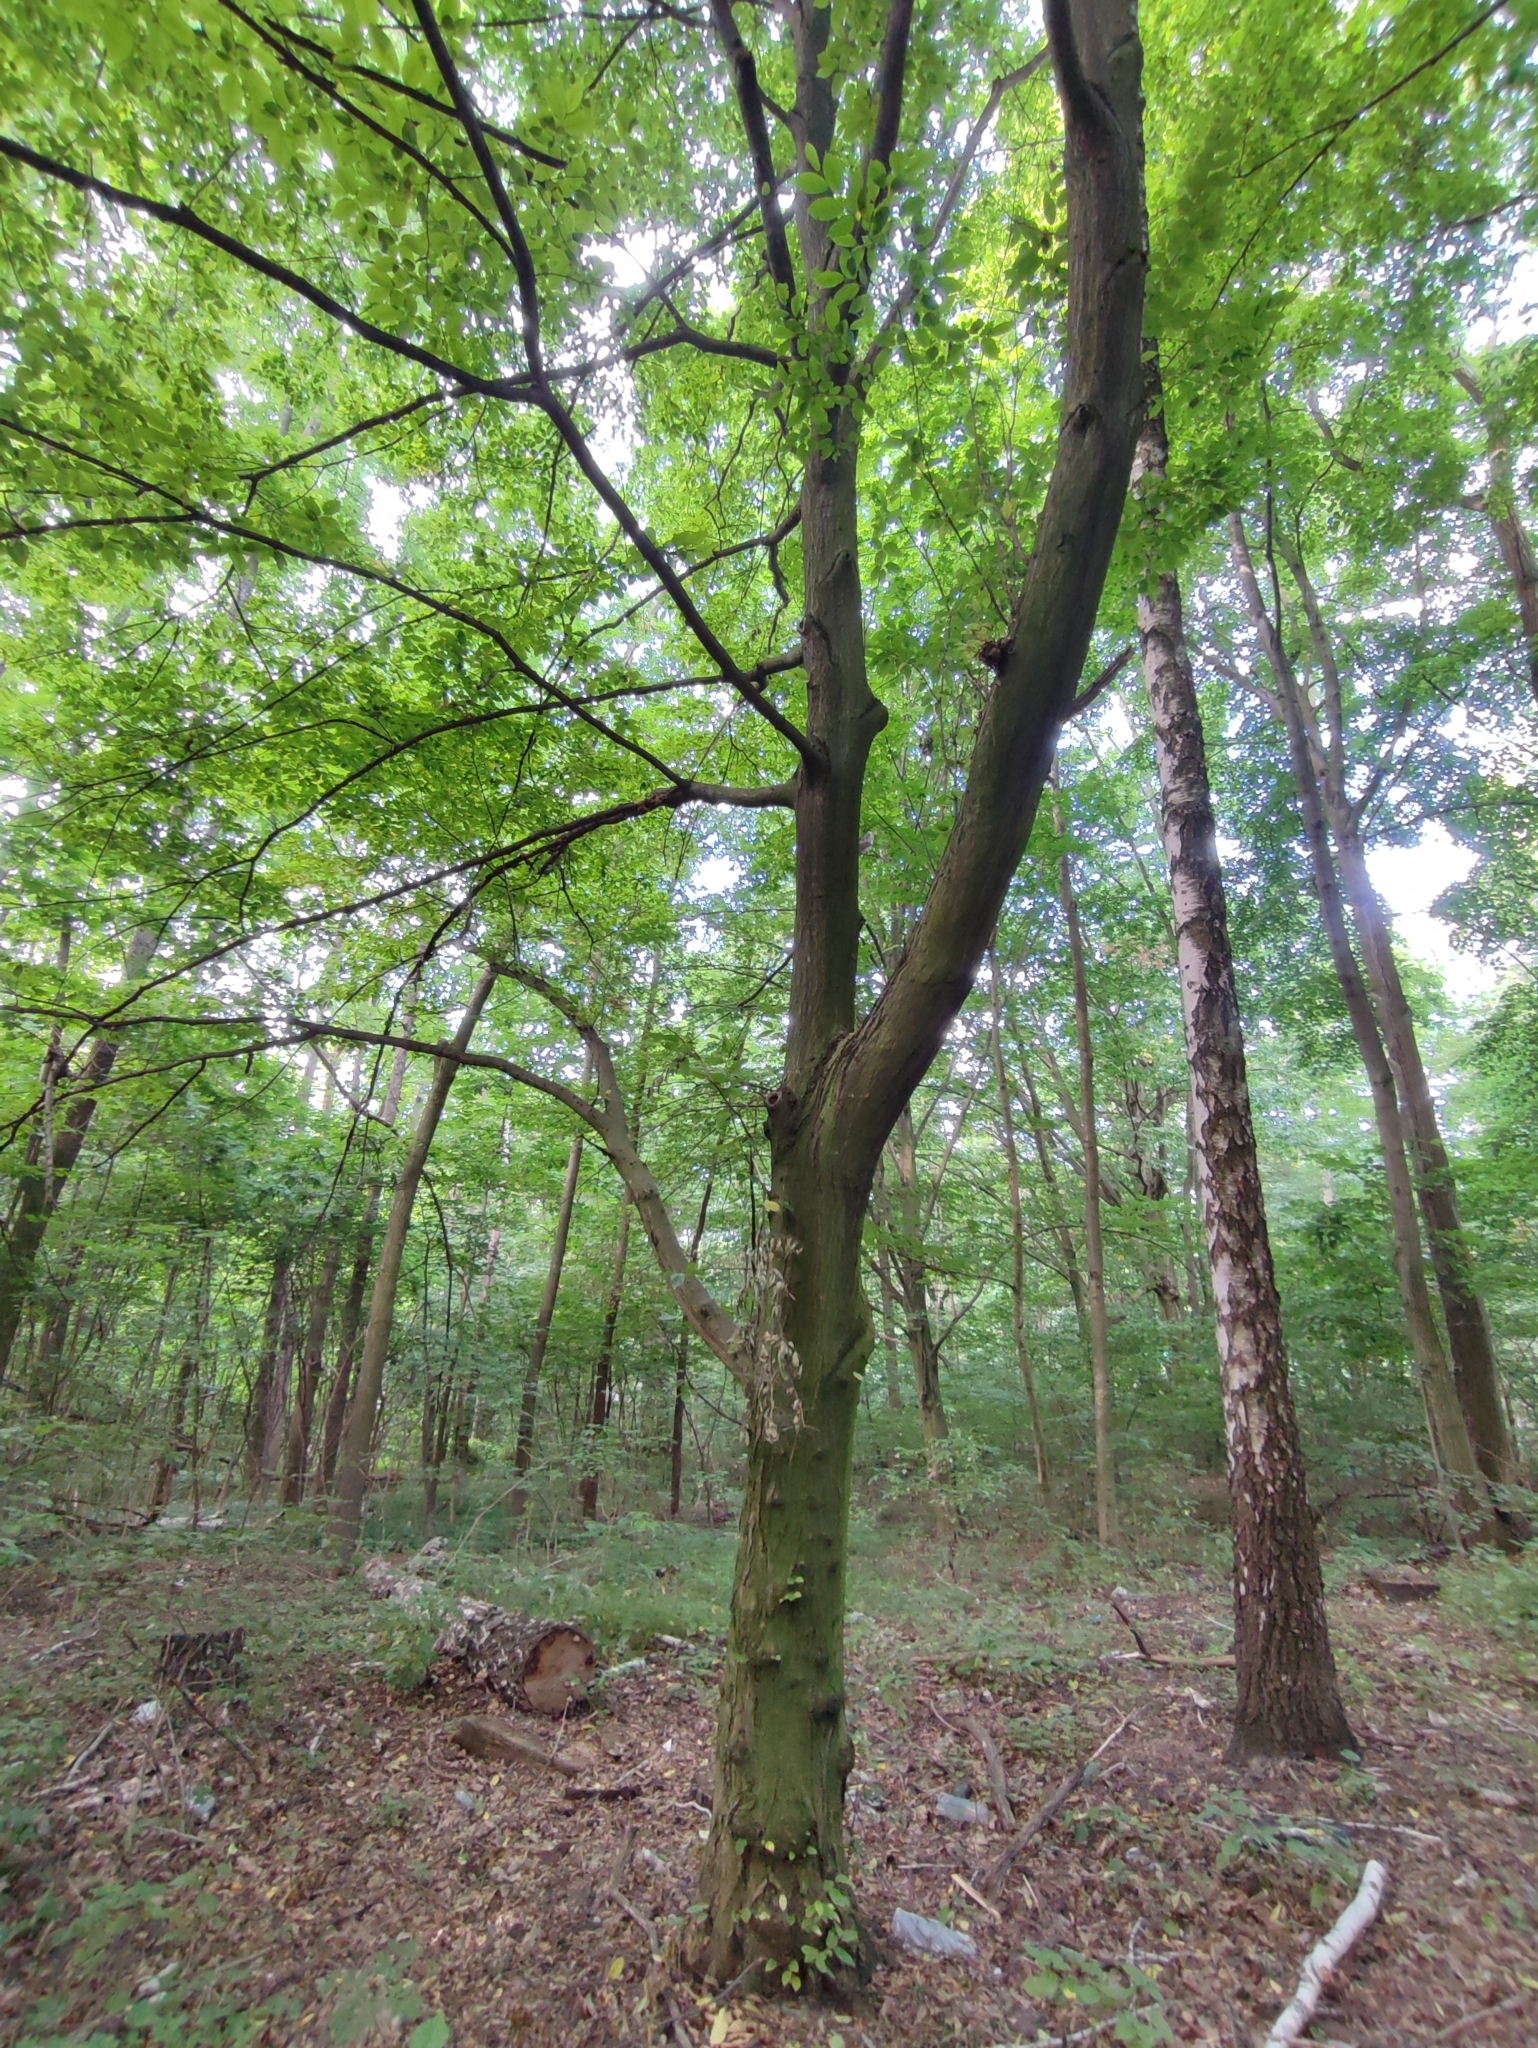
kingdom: Plantae
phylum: Tracheophyta
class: Magnoliopsida
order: Fagales
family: Betulaceae
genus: Carpinus
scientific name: Carpinus betulus
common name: Hornbeam
